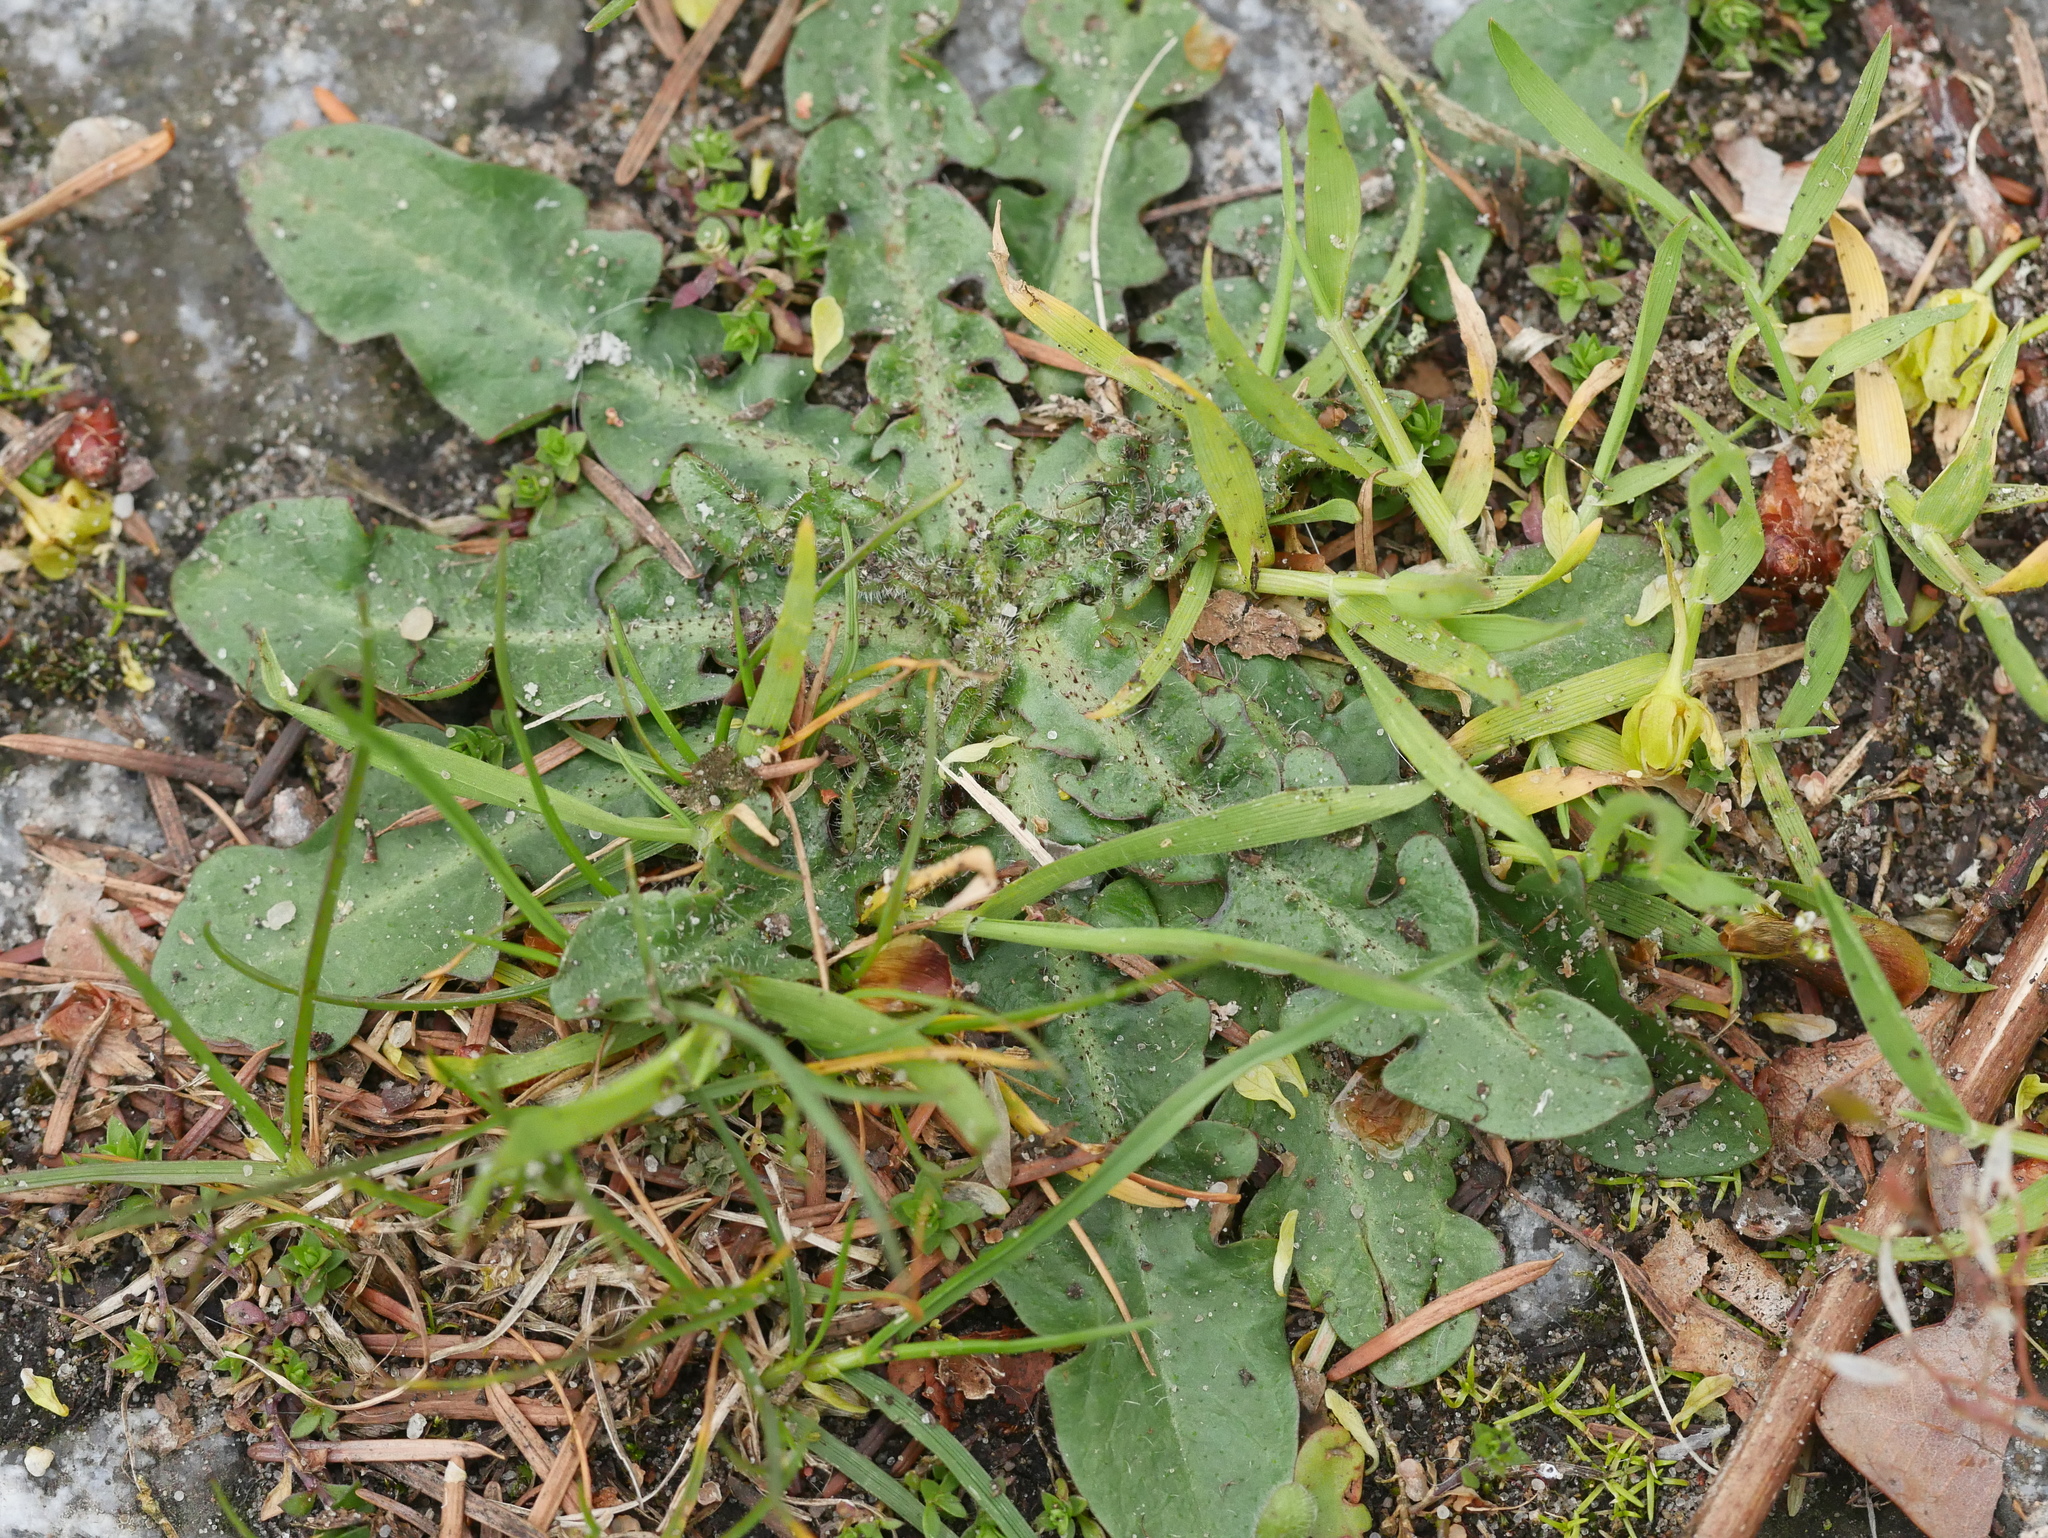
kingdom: Plantae
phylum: Tracheophyta
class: Magnoliopsida
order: Asterales
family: Asteraceae
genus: Hypochaeris
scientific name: Hypochaeris radicata
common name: Flatweed
